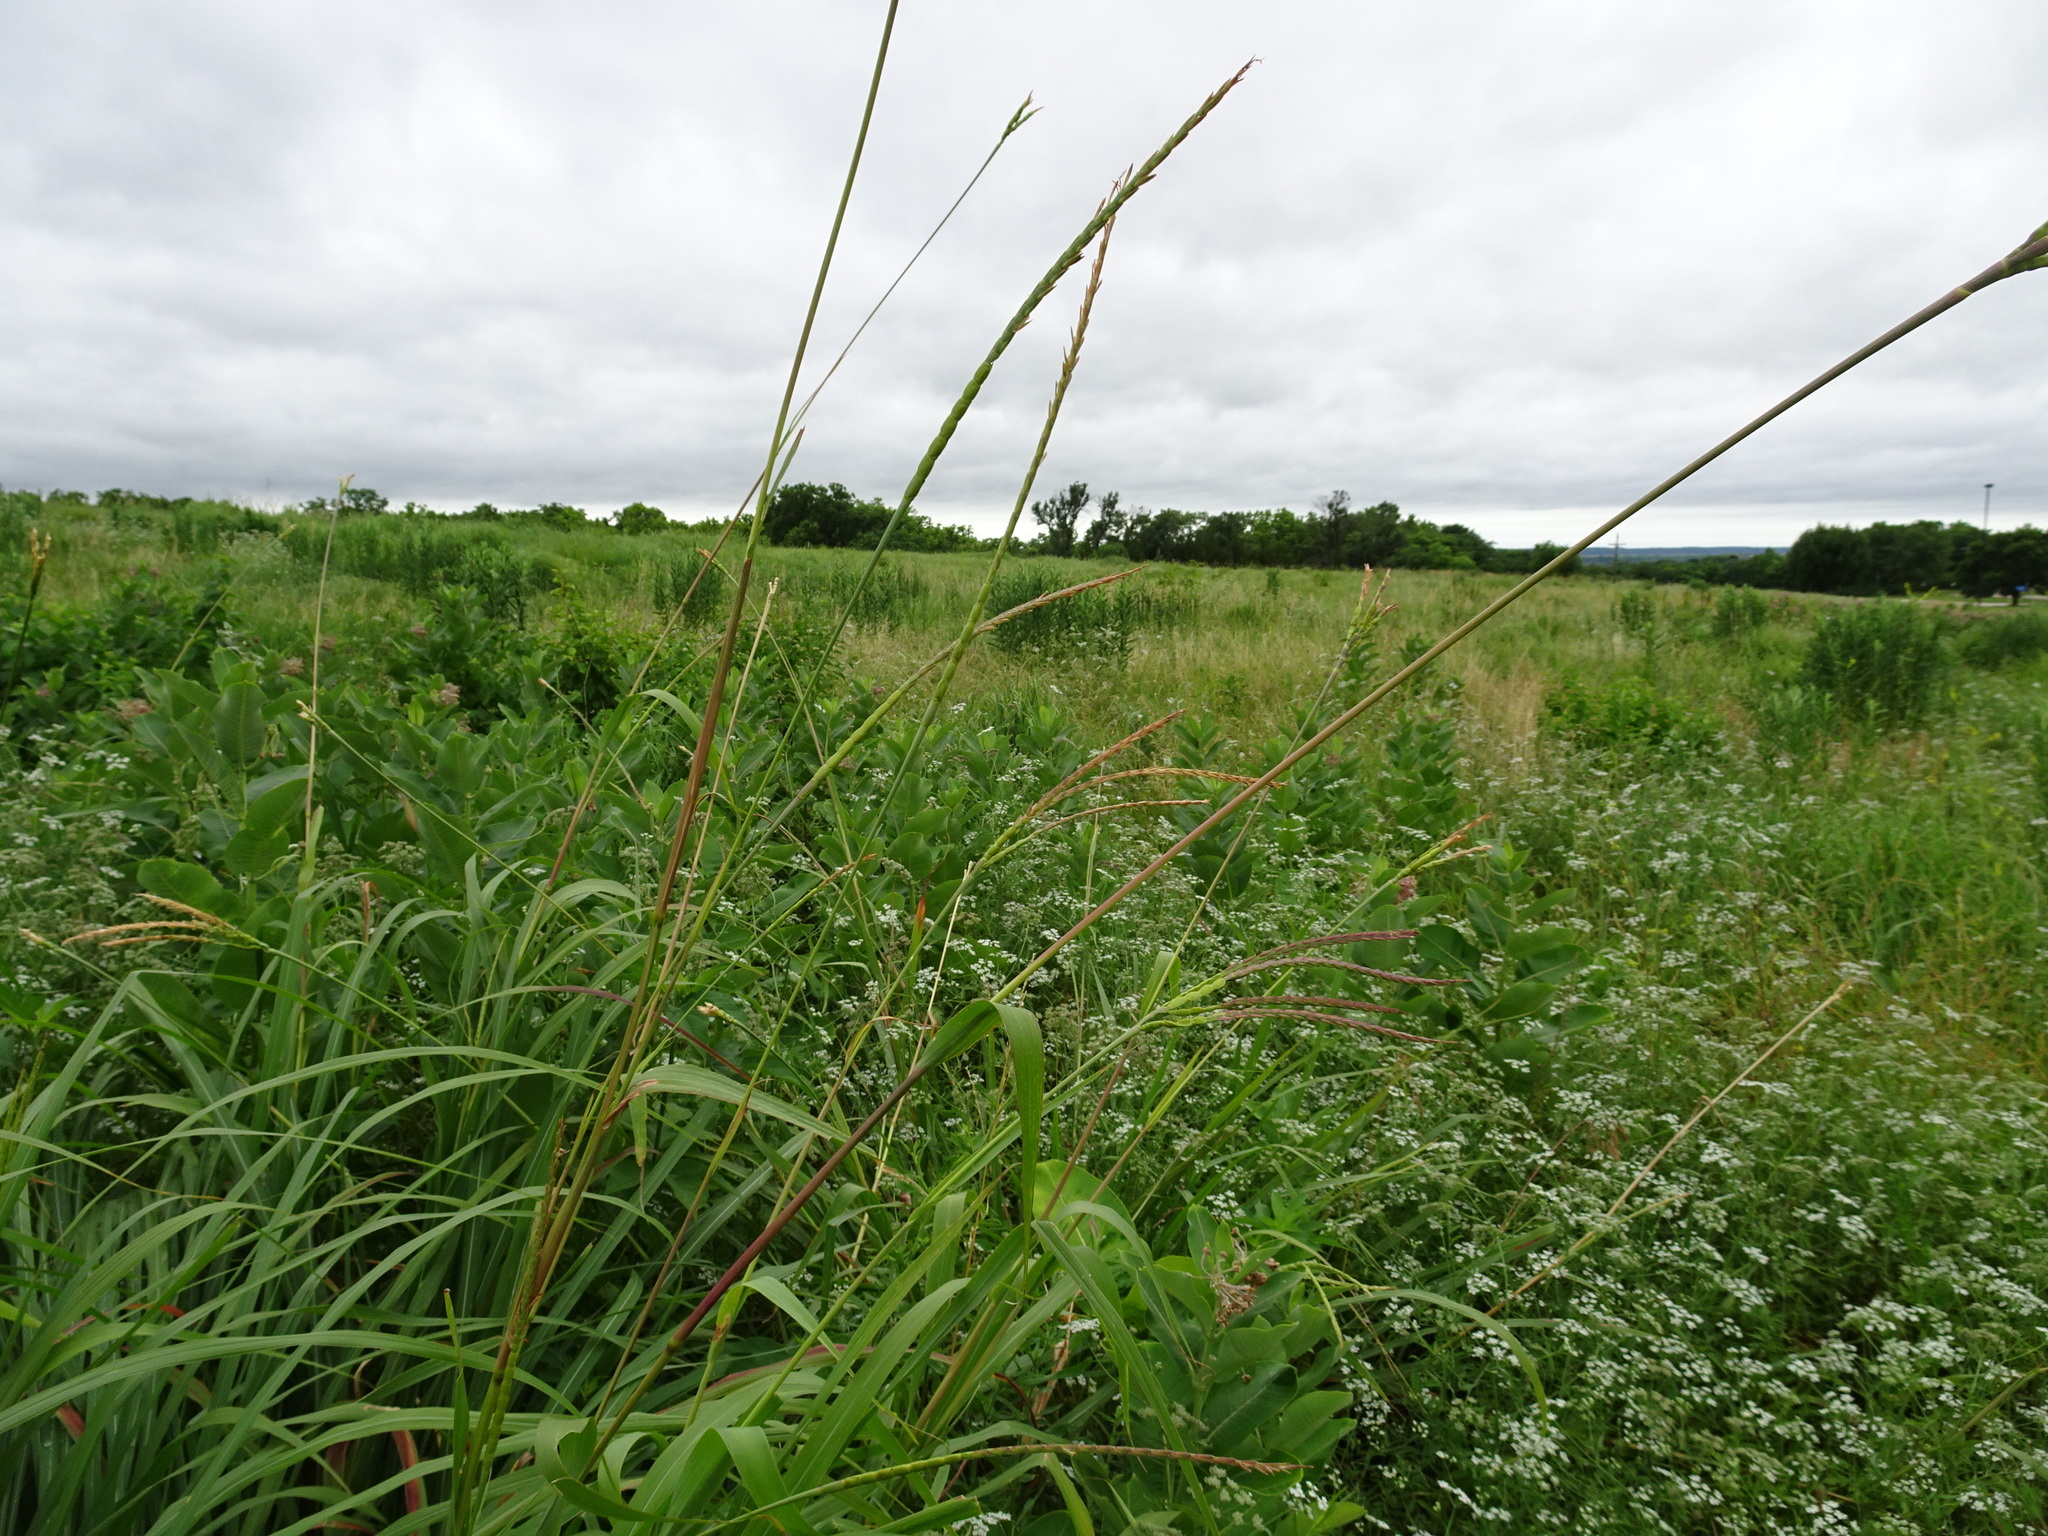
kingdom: Plantae
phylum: Tracheophyta
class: Liliopsida
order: Poales
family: Poaceae
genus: Tripsacum
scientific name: Tripsacum dactyloides
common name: Buffalo-grass
